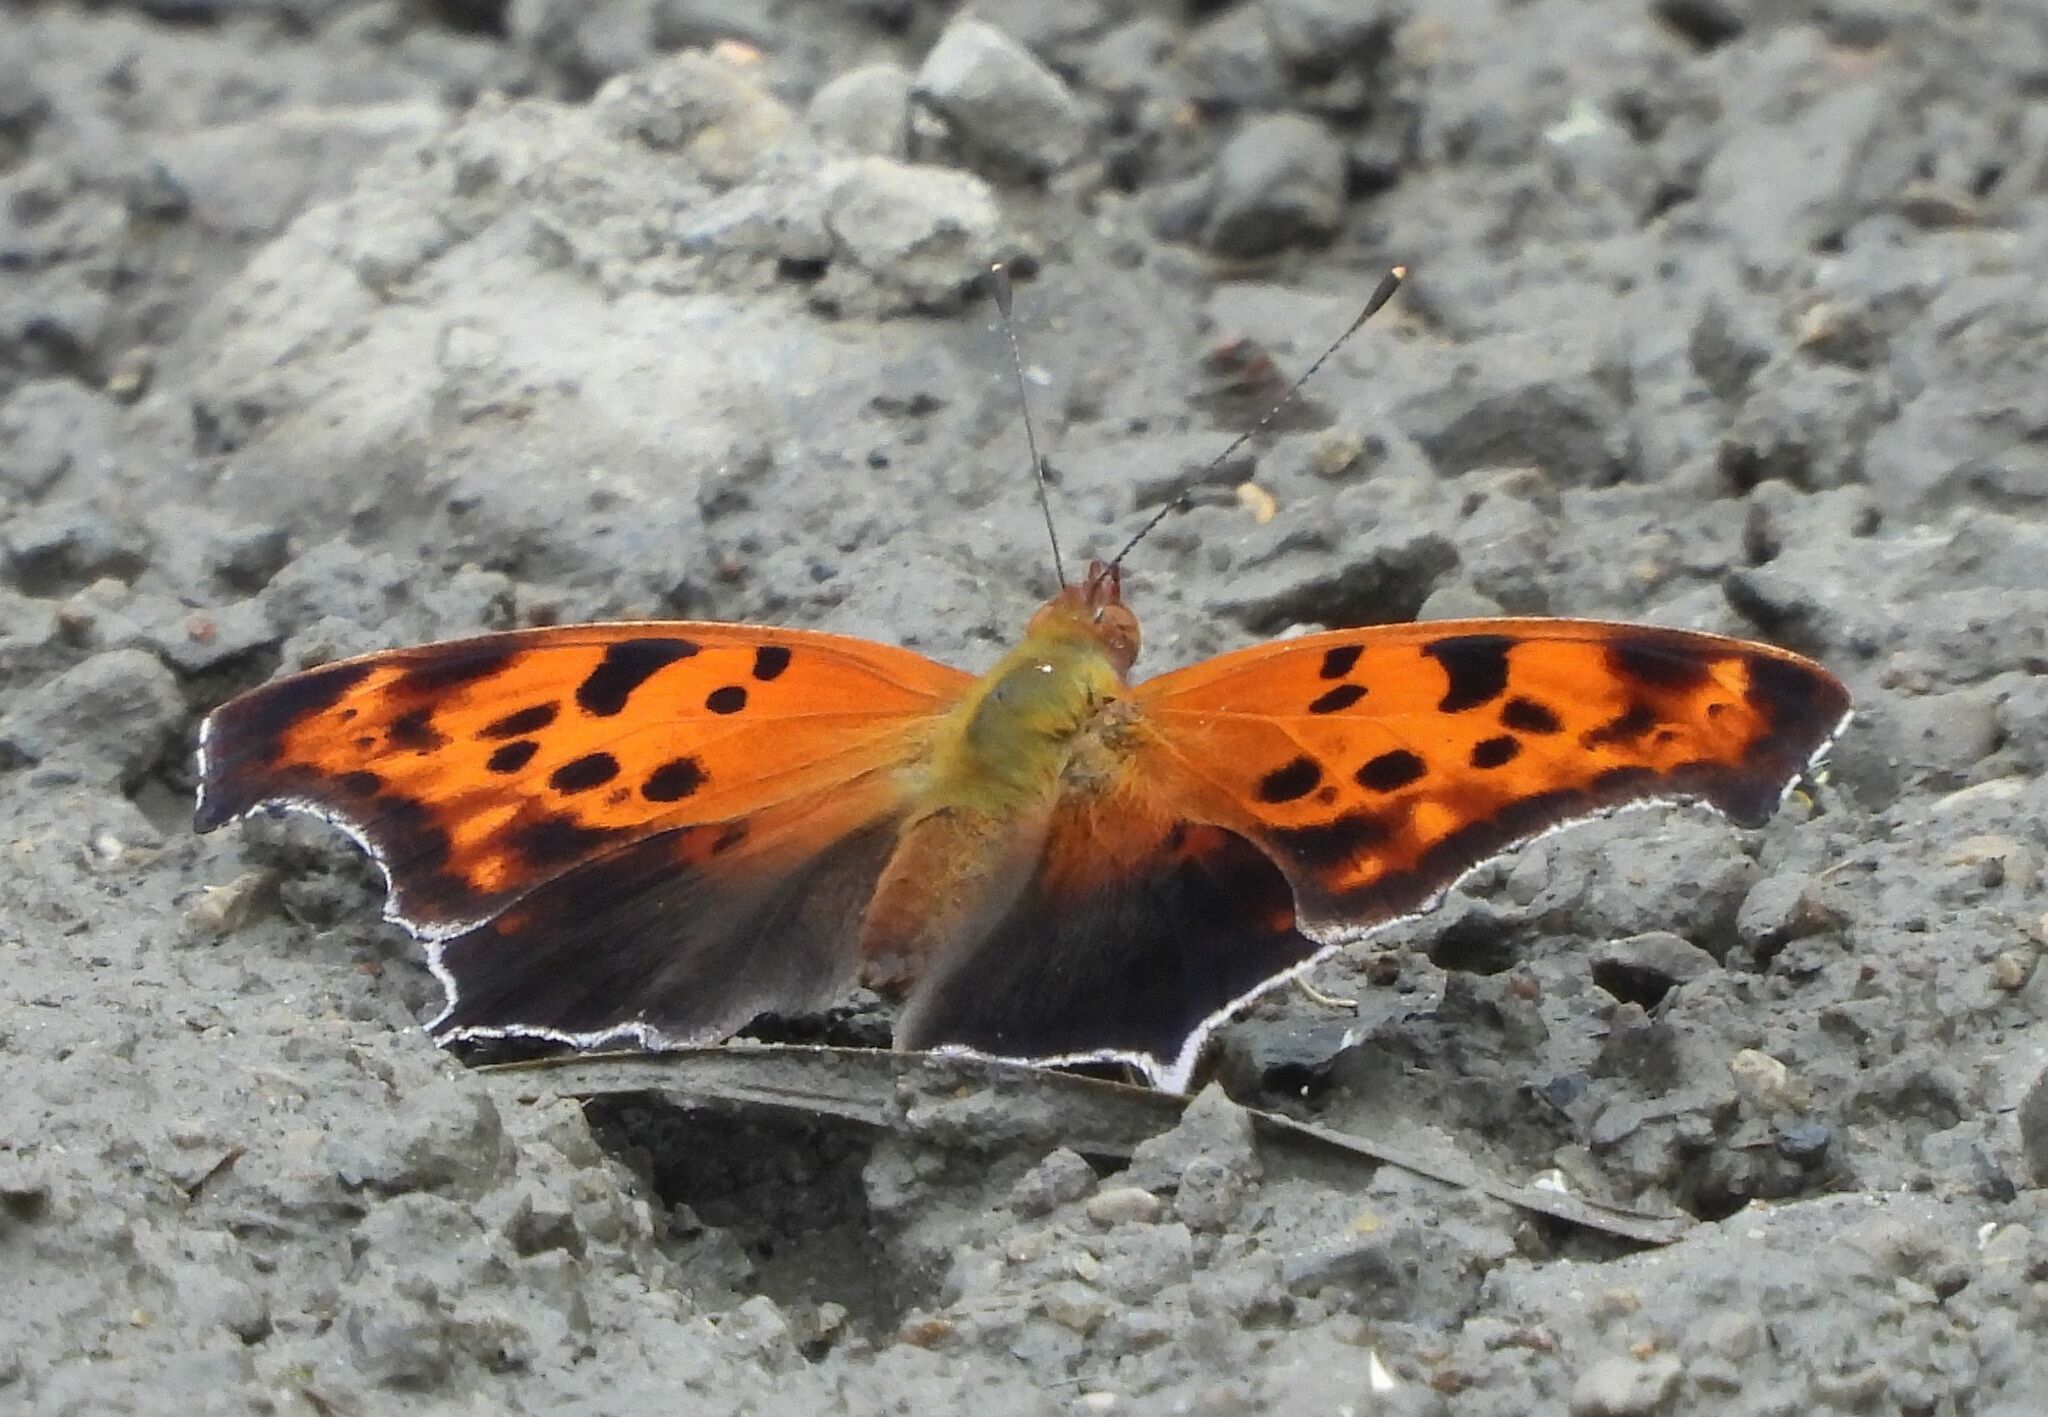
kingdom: Animalia
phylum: Arthropoda
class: Insecta
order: Lepidoptera
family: Nymphalidae
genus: Polygonia
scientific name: Polygonia interrogationis
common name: Question mark
